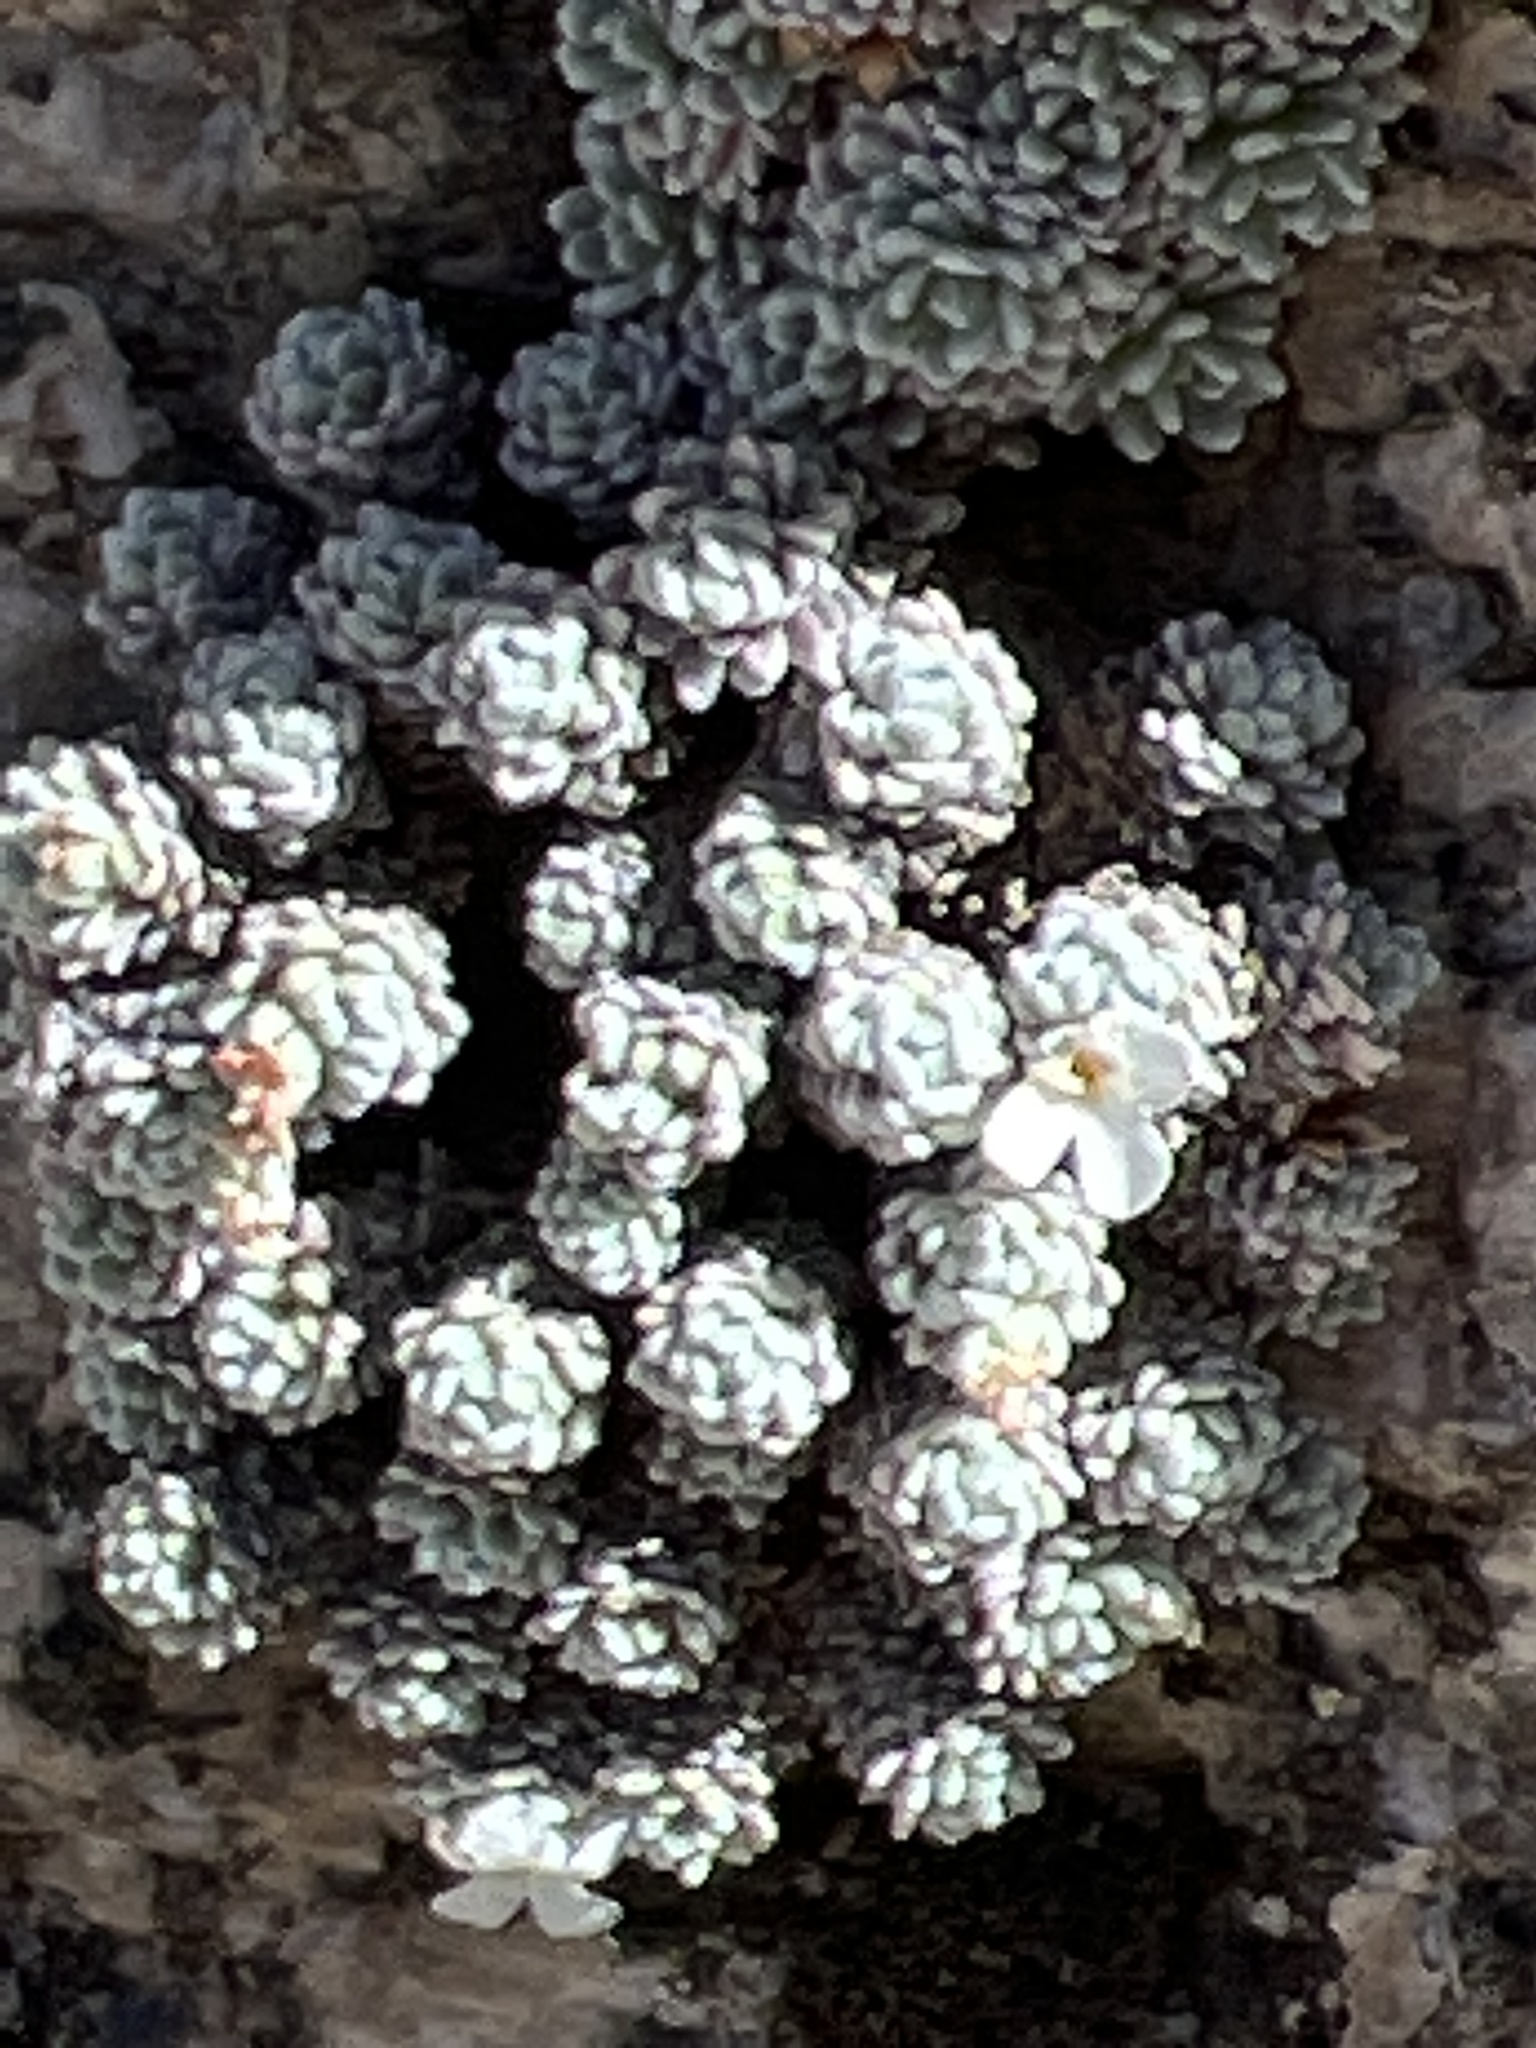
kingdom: Plantae
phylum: Tracheophyta
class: Magnoliopsida
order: Ericales
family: Primulaceae
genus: Androsace
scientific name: Androsace argentea
